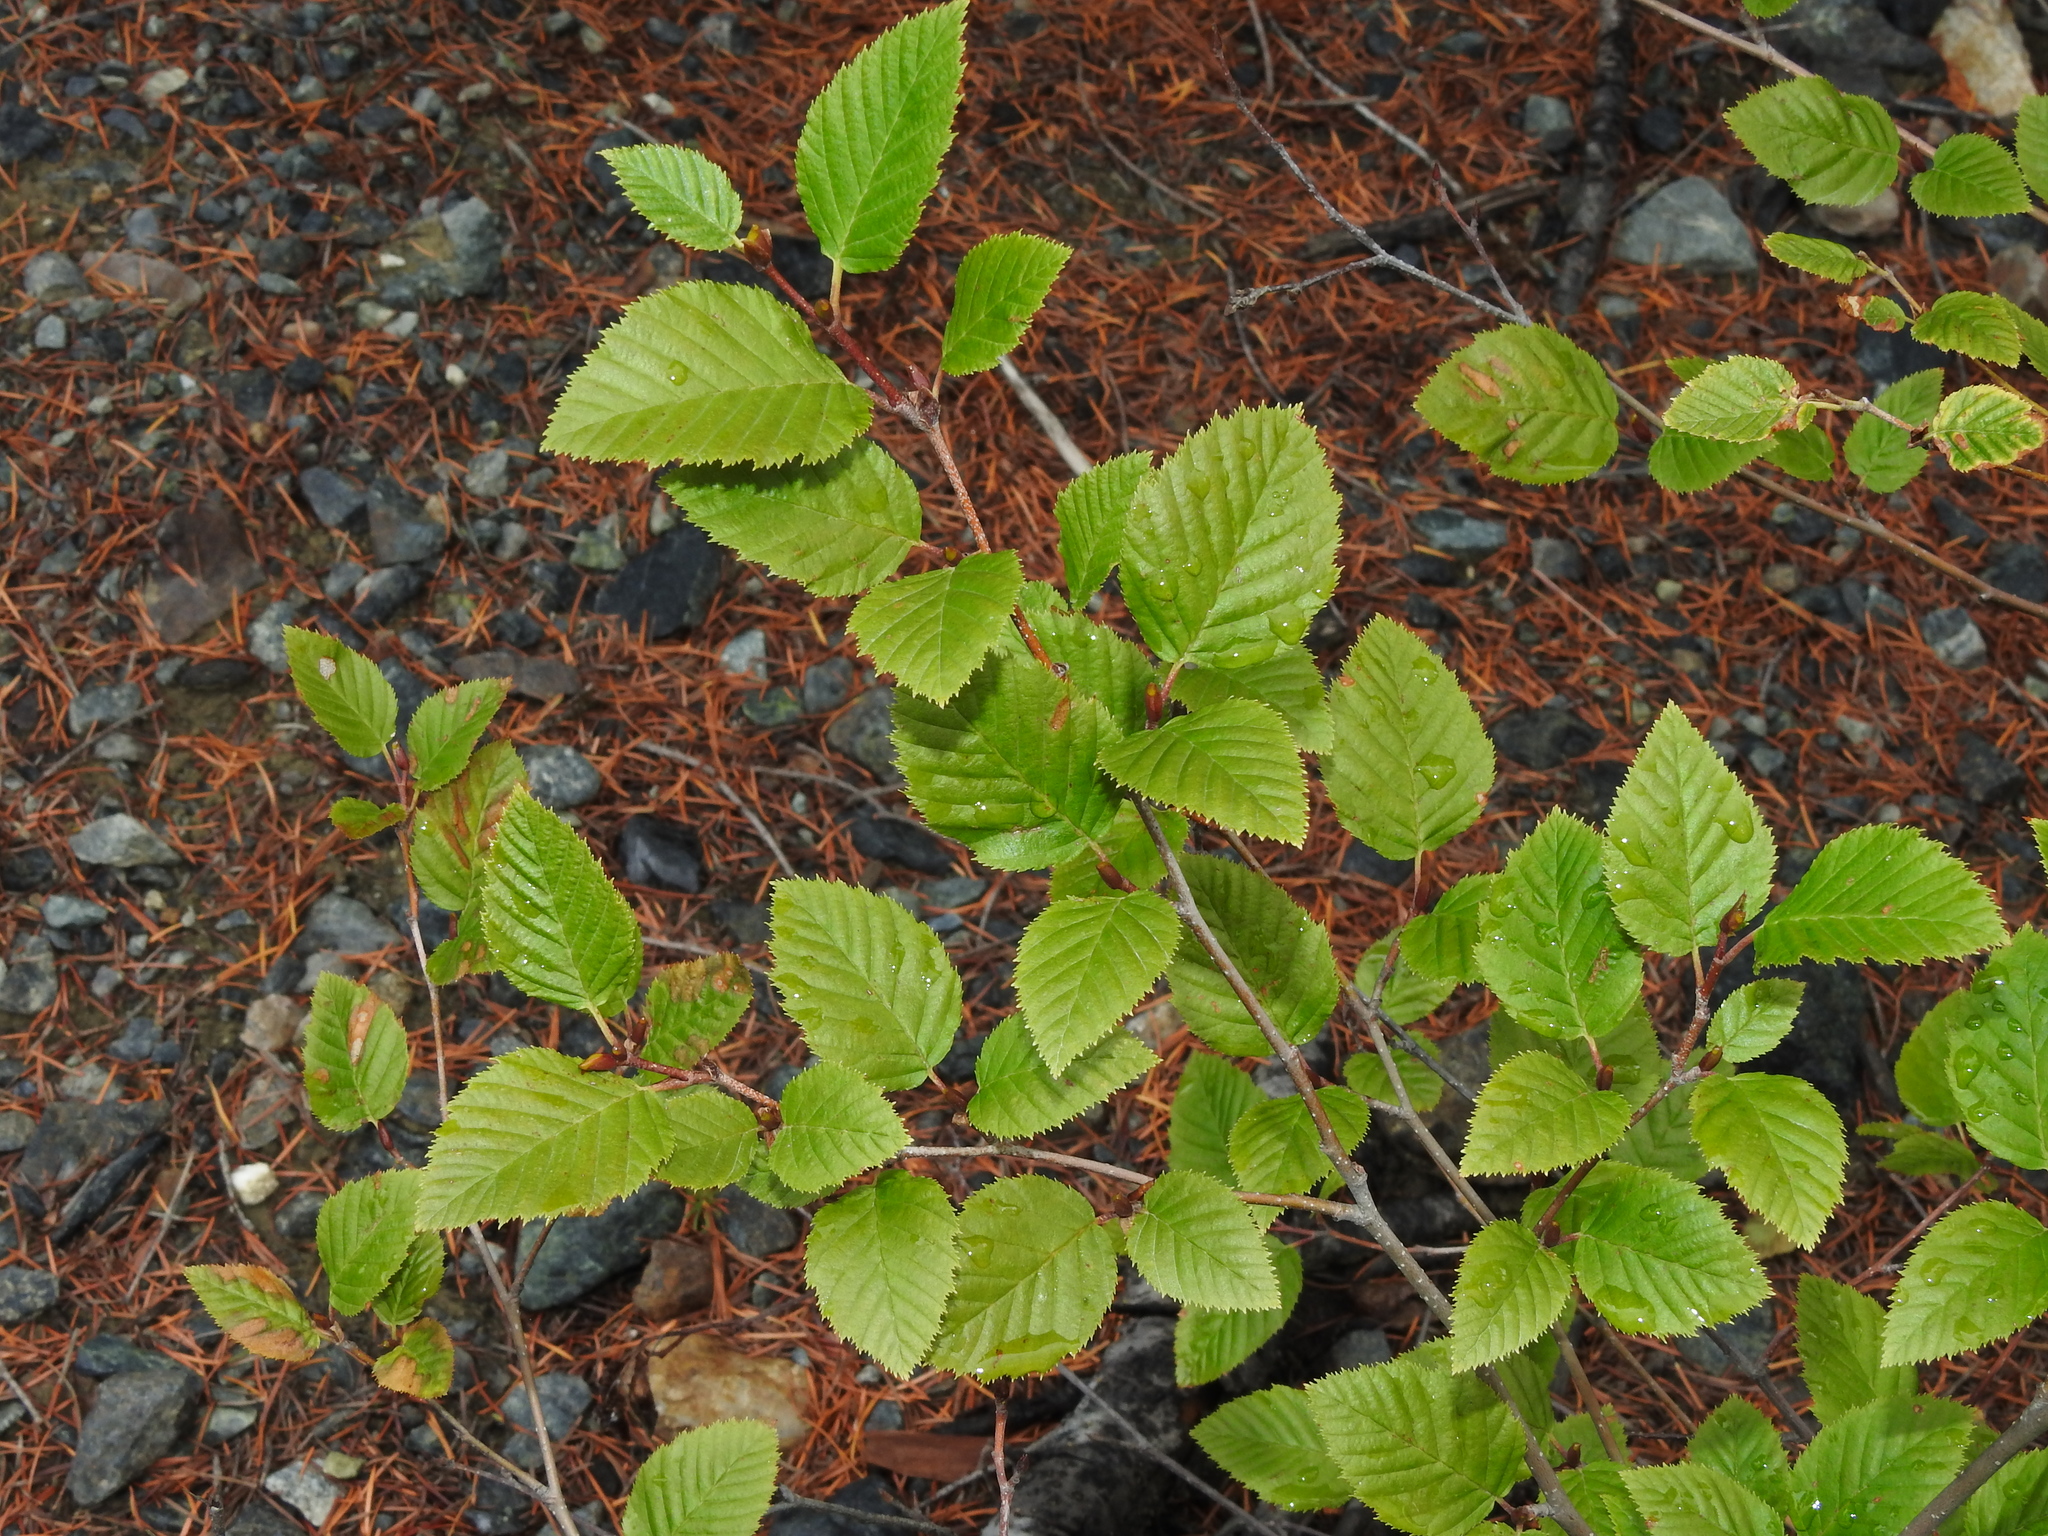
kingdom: Plantae
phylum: Tracheophyta
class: Magnoliopsida
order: Fagales
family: Betulaceae
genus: Alnus
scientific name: Alnus alnobetula
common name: Green alder
